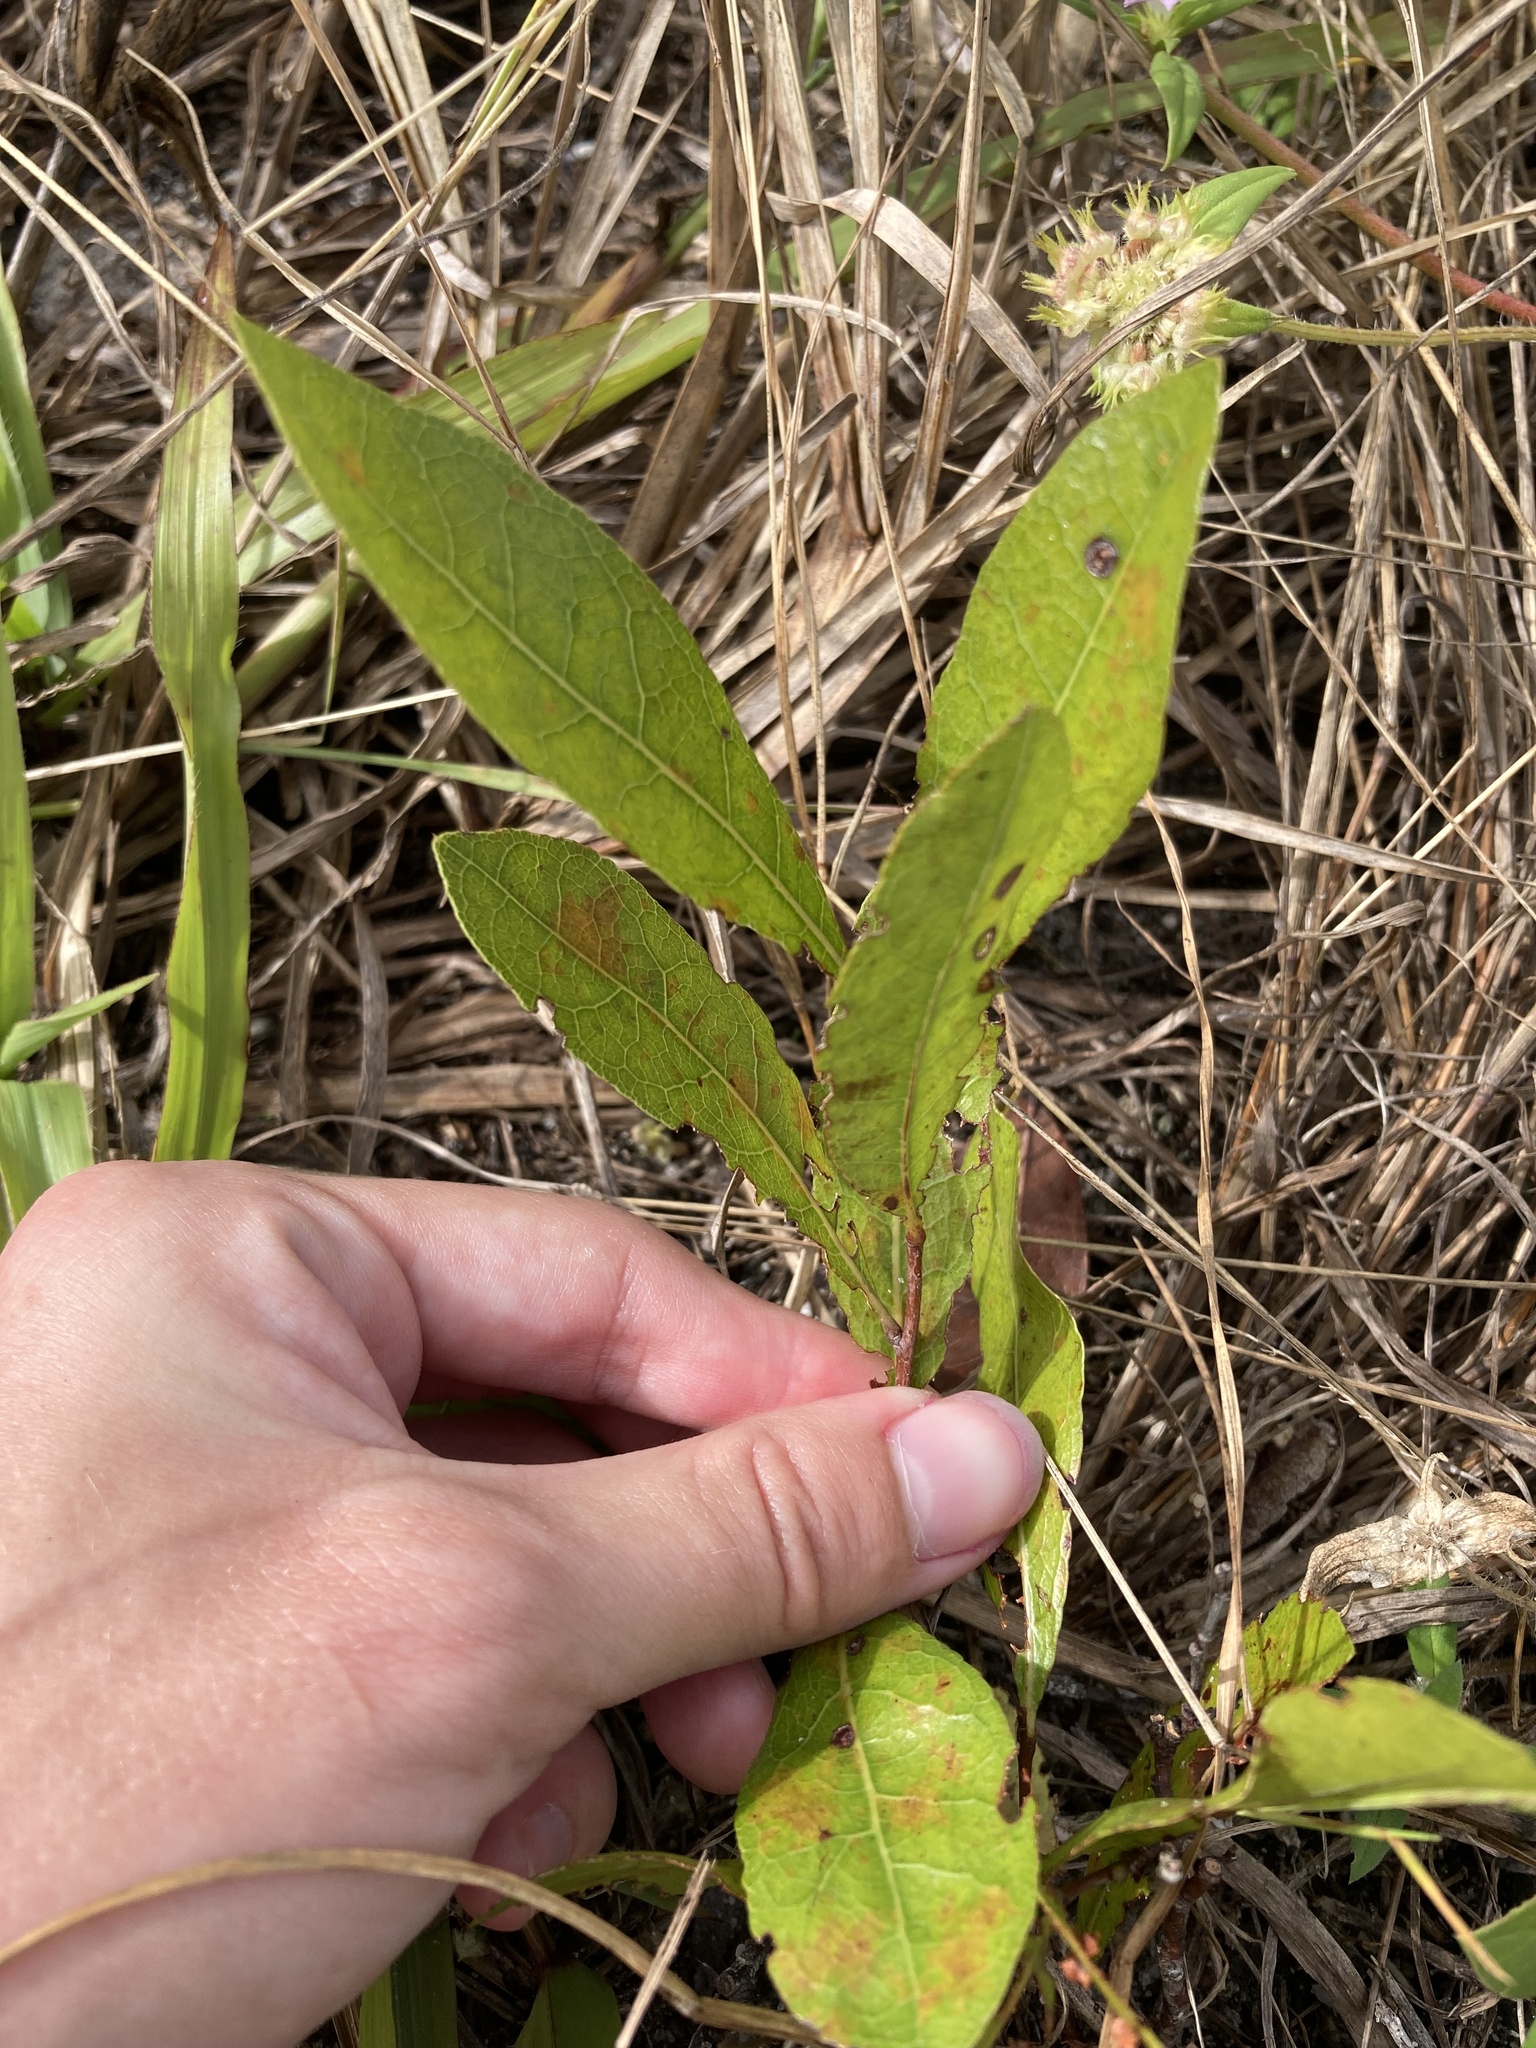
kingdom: Plantae
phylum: Tracheophyta
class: Magnoliopsida
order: Malpighiales
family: Chrysobalanaceae
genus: Geobalanus
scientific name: Geobalanus oblongifolius
